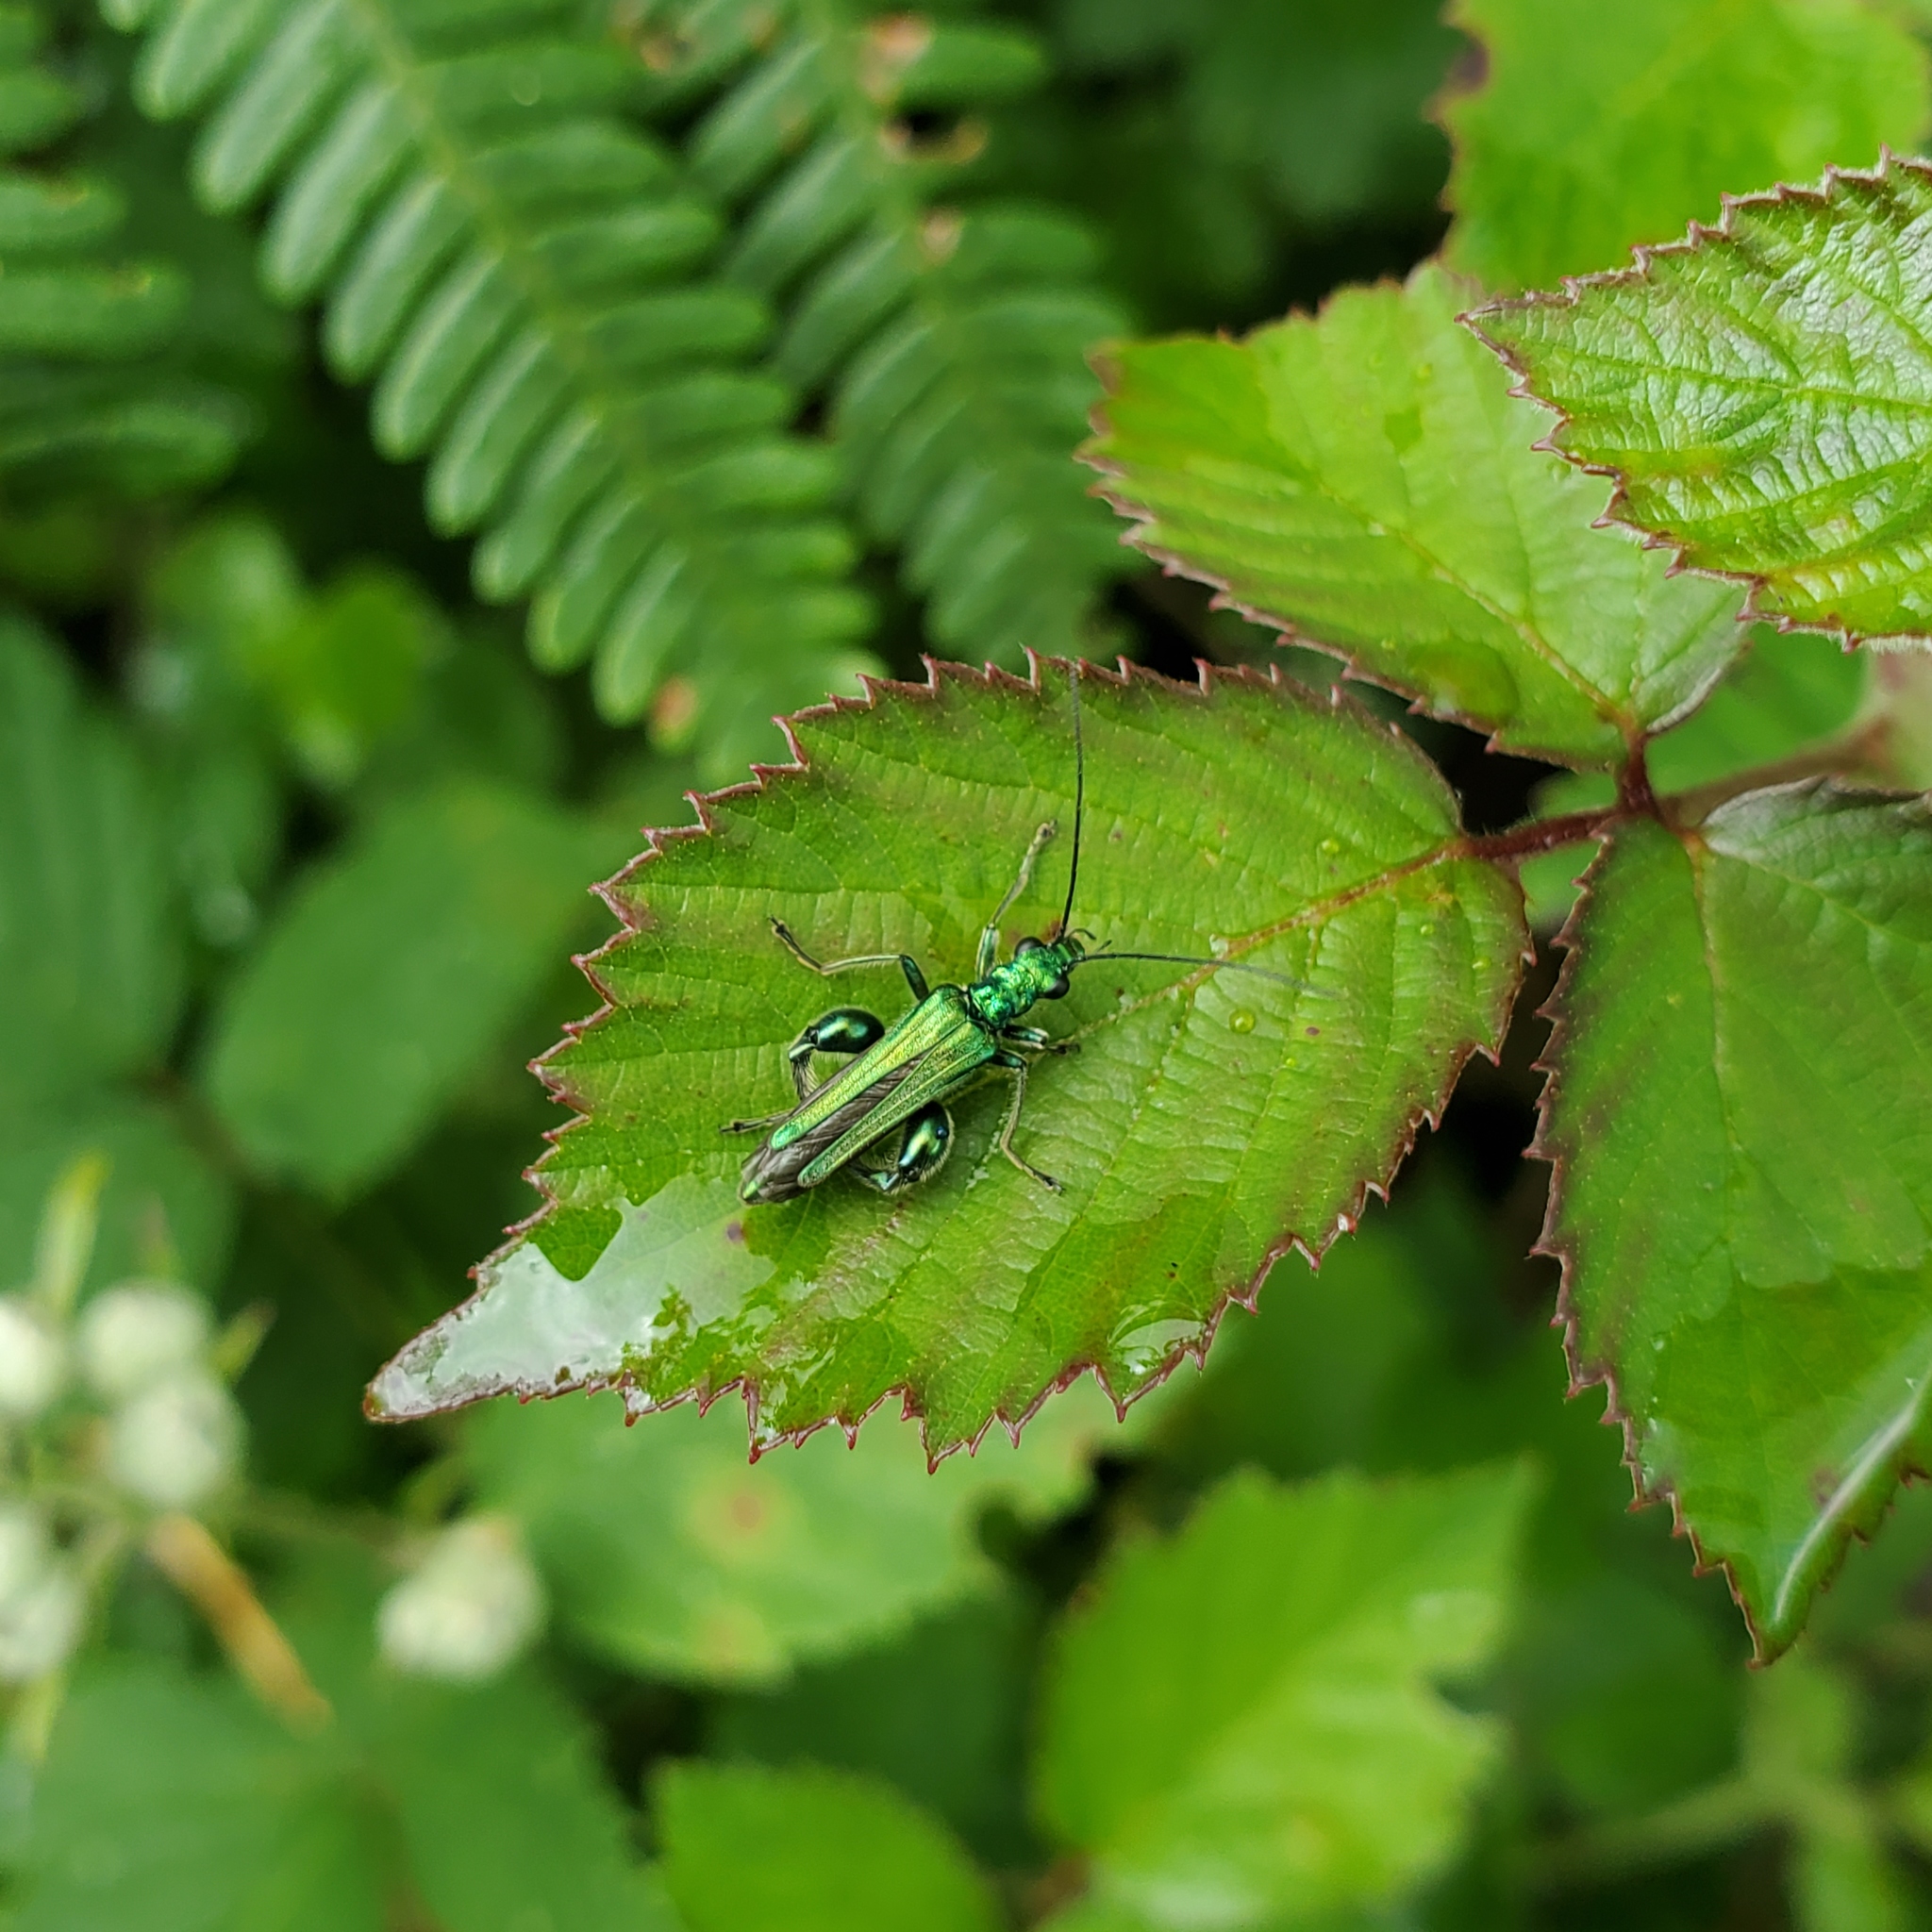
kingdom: Animalia
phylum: Arthropoda
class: Insecta
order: Coleoptera
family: Oedemeridae
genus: Oedemera
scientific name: Oedemera nobilis
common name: Swollen-thighed beetle
